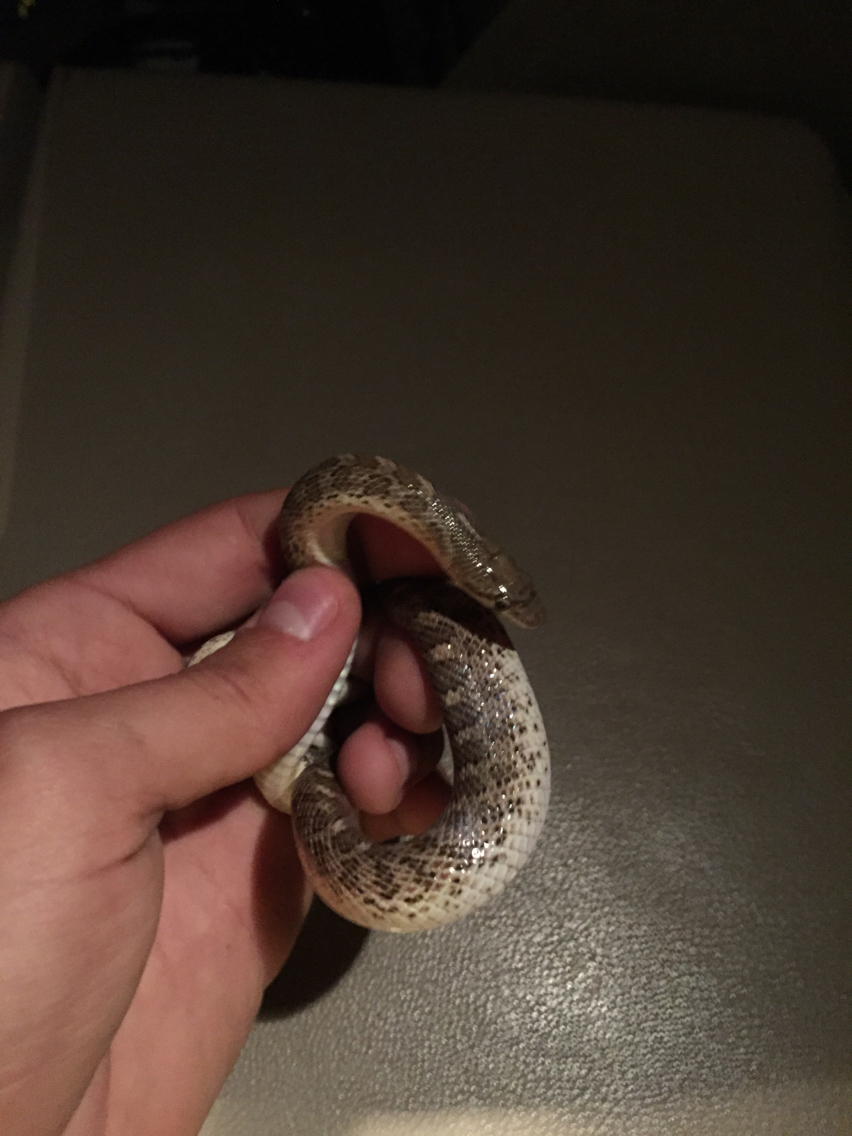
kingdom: Animalia
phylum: Chordata
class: Squamata
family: Colubridae
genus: Arizona
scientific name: Arizona elegans
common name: Glossy snake
